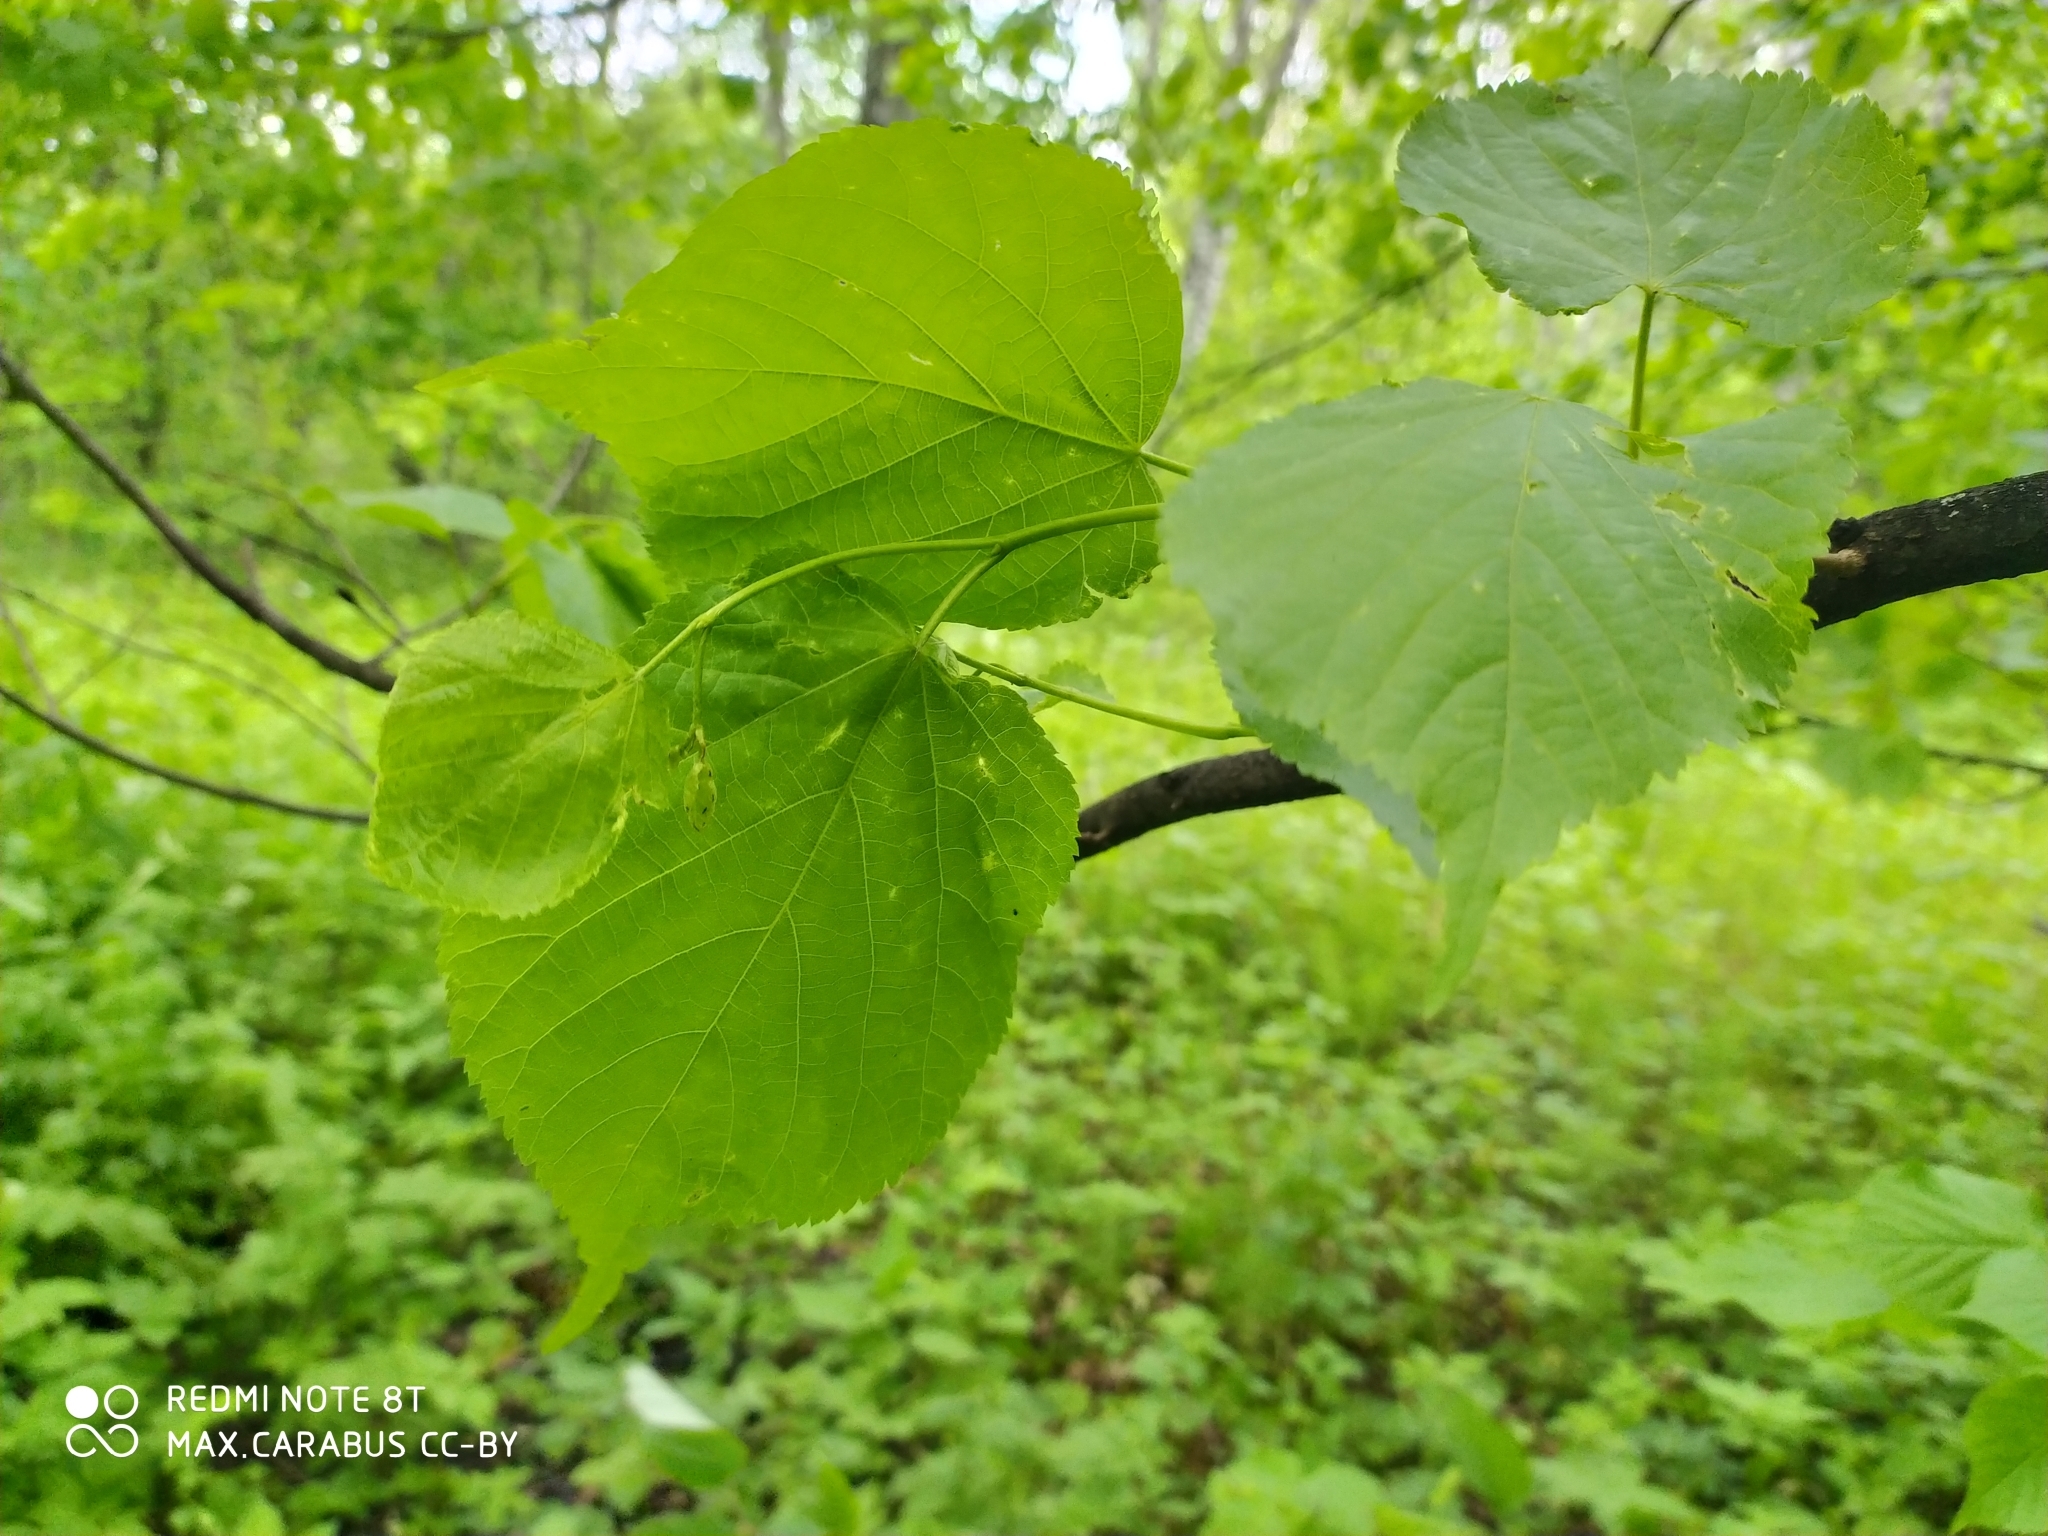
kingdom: Plantae
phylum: Tracheophyta
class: Magnoliopsida
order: Malvales
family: Malvaceae
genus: Tilia
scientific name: Tilia cordata
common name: Small-leaved lime
